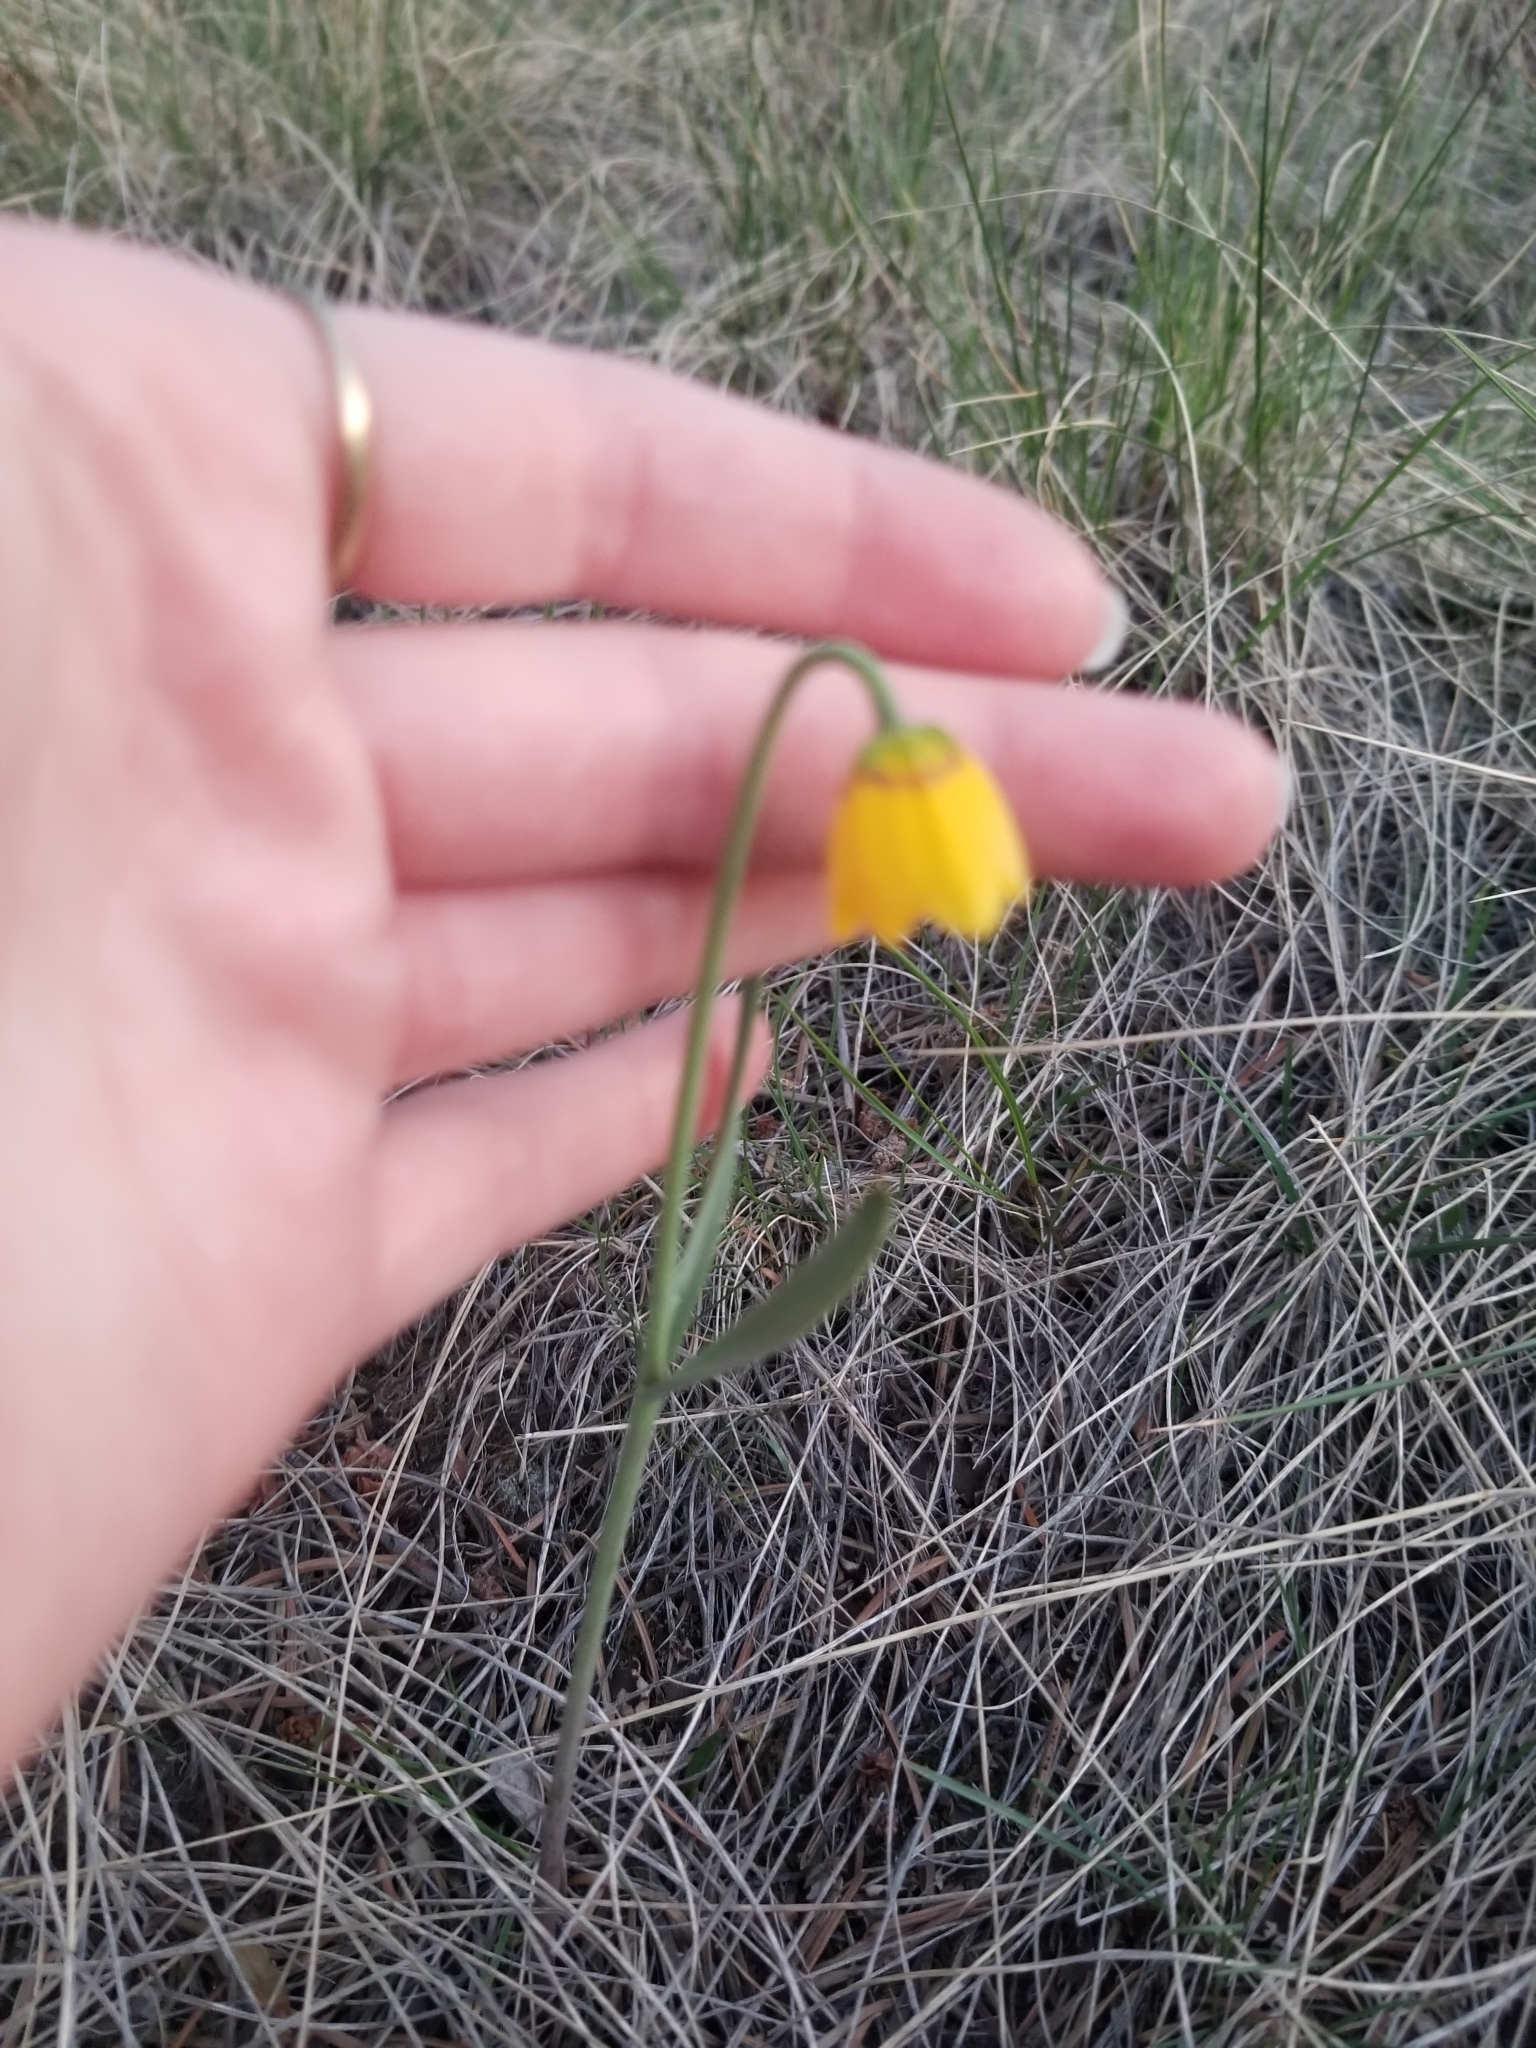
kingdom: Plantae
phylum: Tracheophyta
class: Liliopsida
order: Liliales
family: Liliaceae
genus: Fritillaria
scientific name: Fritillaria pudica
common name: Yellow fritillary
